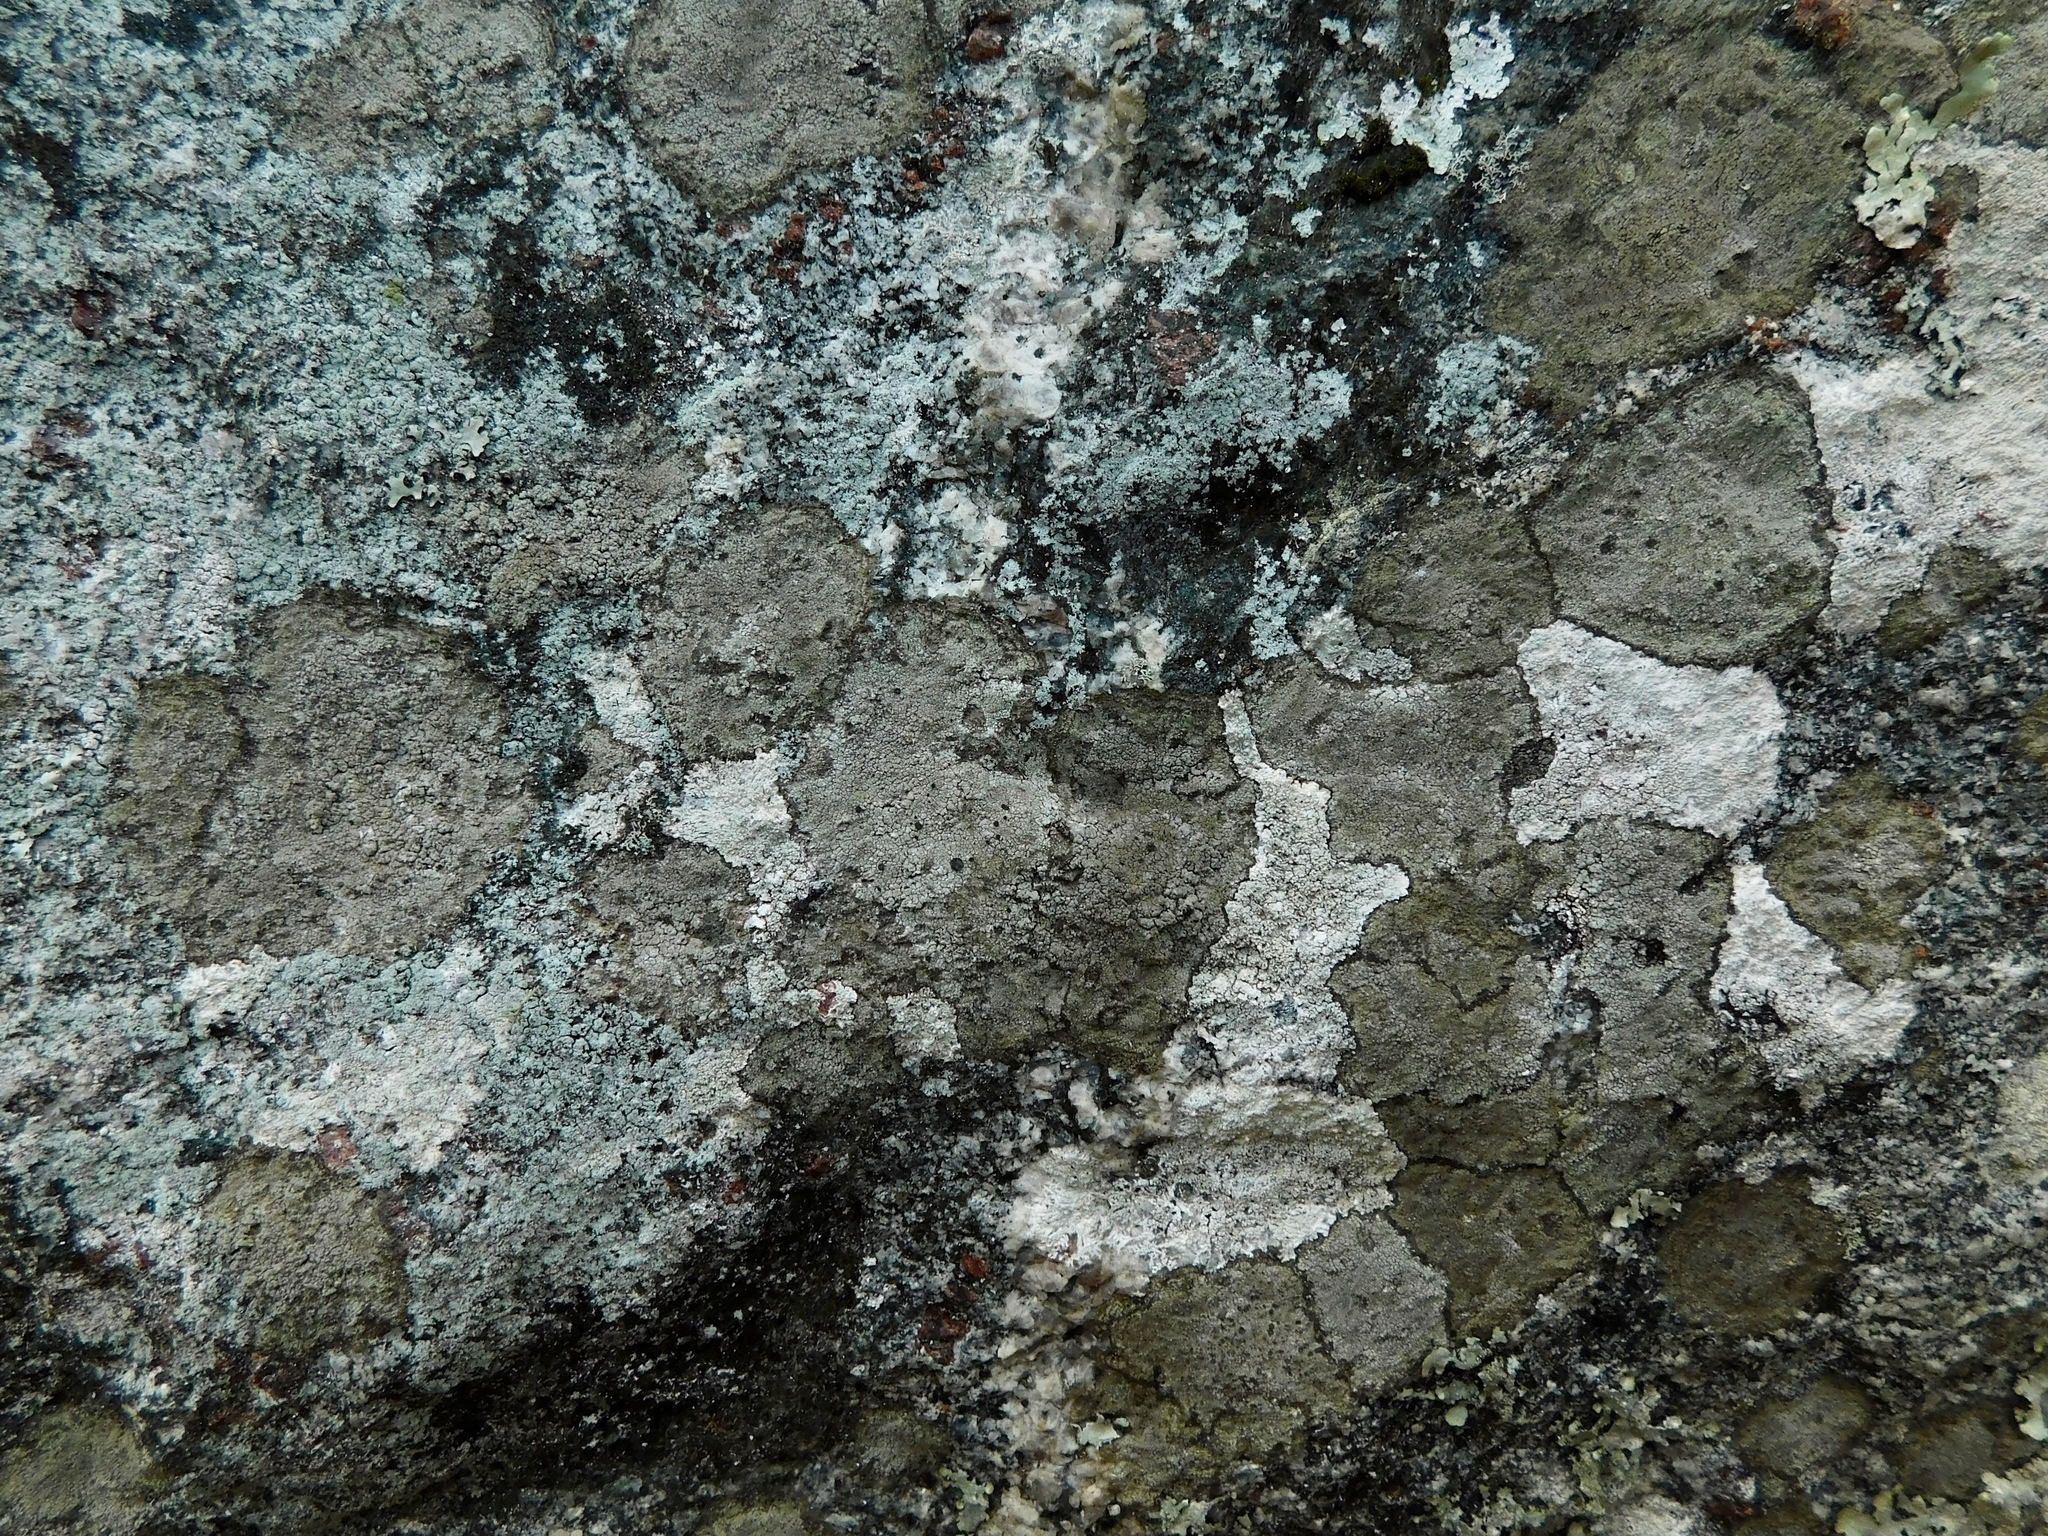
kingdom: Fungi
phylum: Ascomycota
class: Lecanoromycetes
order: Rhizocarpales
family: Rhizocarpaceae
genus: Rhizocarpon
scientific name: Rhizocarpon rubescens
